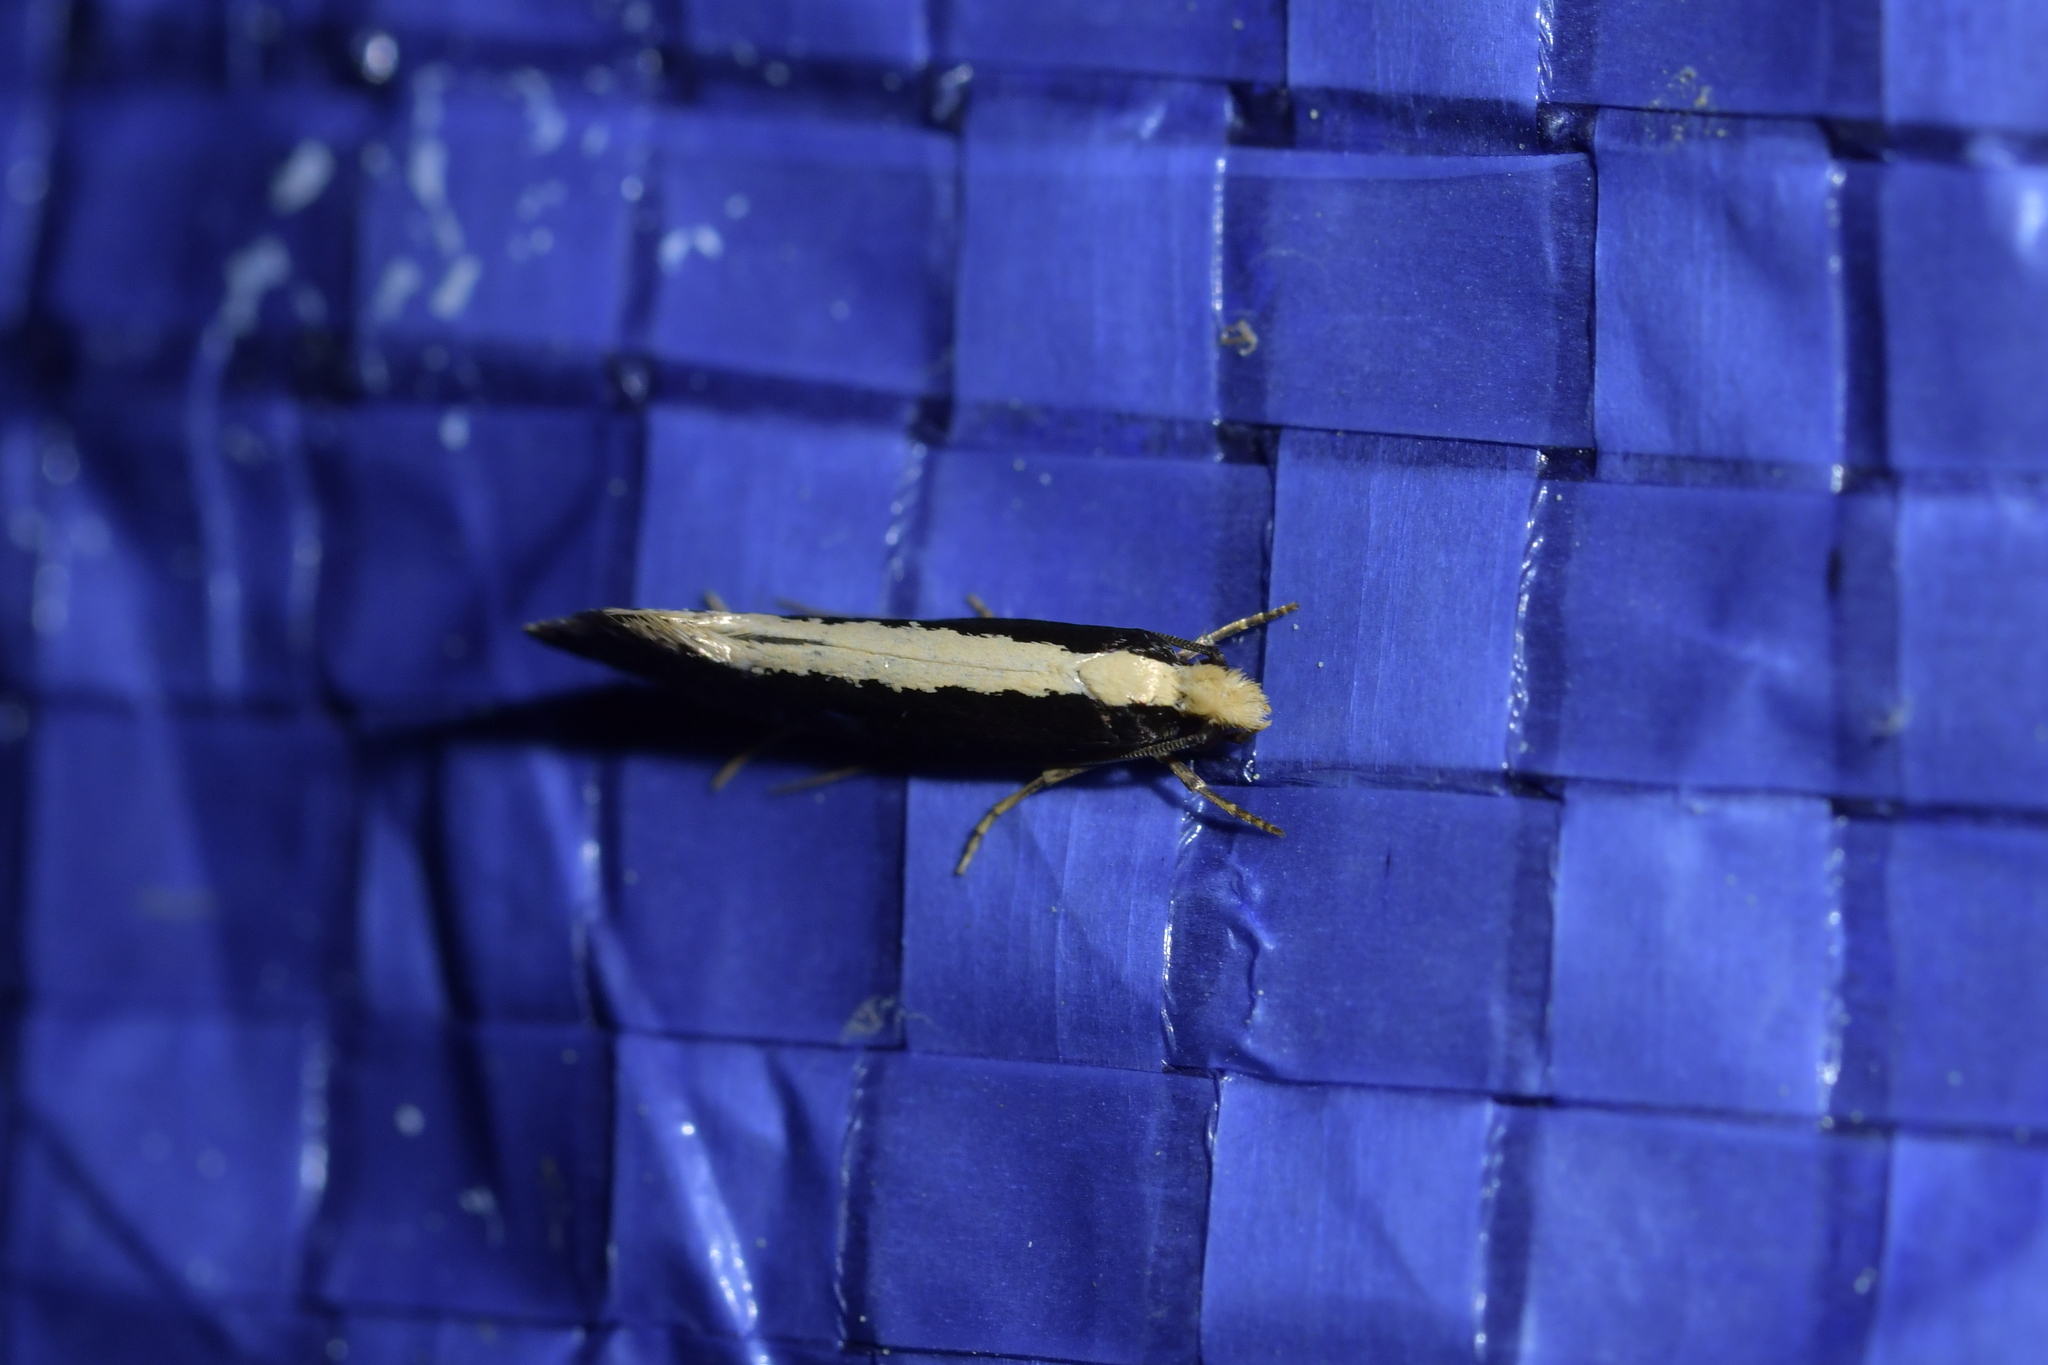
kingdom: Animalia
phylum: Arthropoda
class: Insecta
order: Lepidoptera
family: Tineidae
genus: Monopis
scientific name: Monopis ethelella
